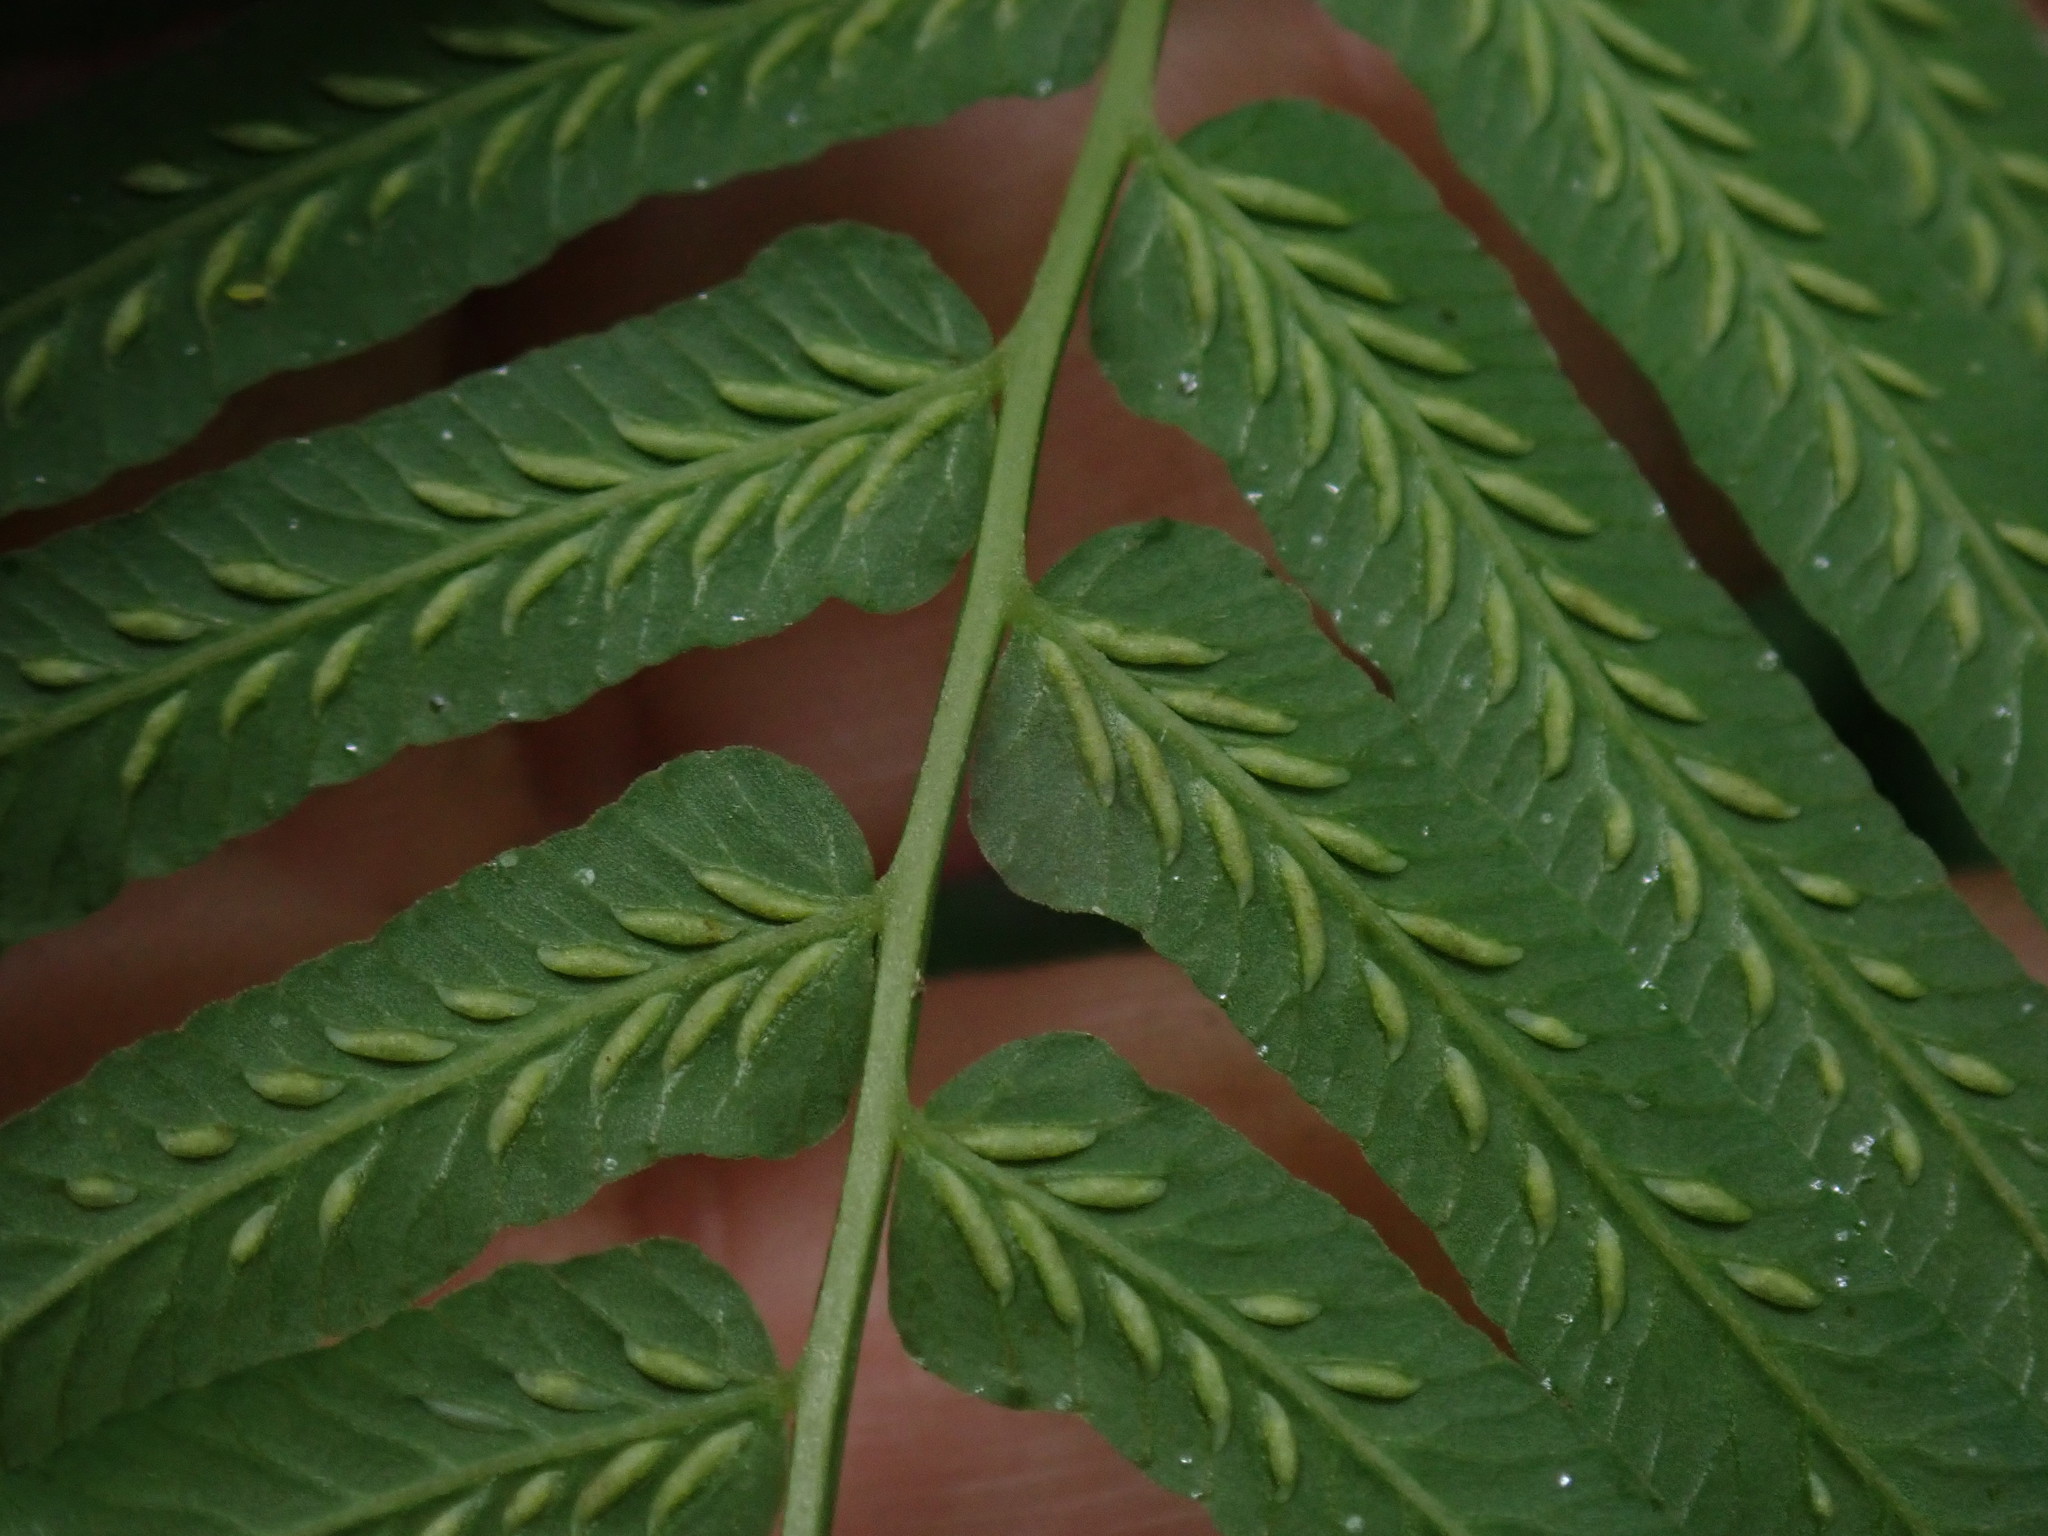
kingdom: Plantae
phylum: Tracheophyta
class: Polypodiopsida
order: Polypodiales
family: Diplaziopsidaceae
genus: Homalosorus
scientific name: Homalosorus pycnocarpos
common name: Glade fern
